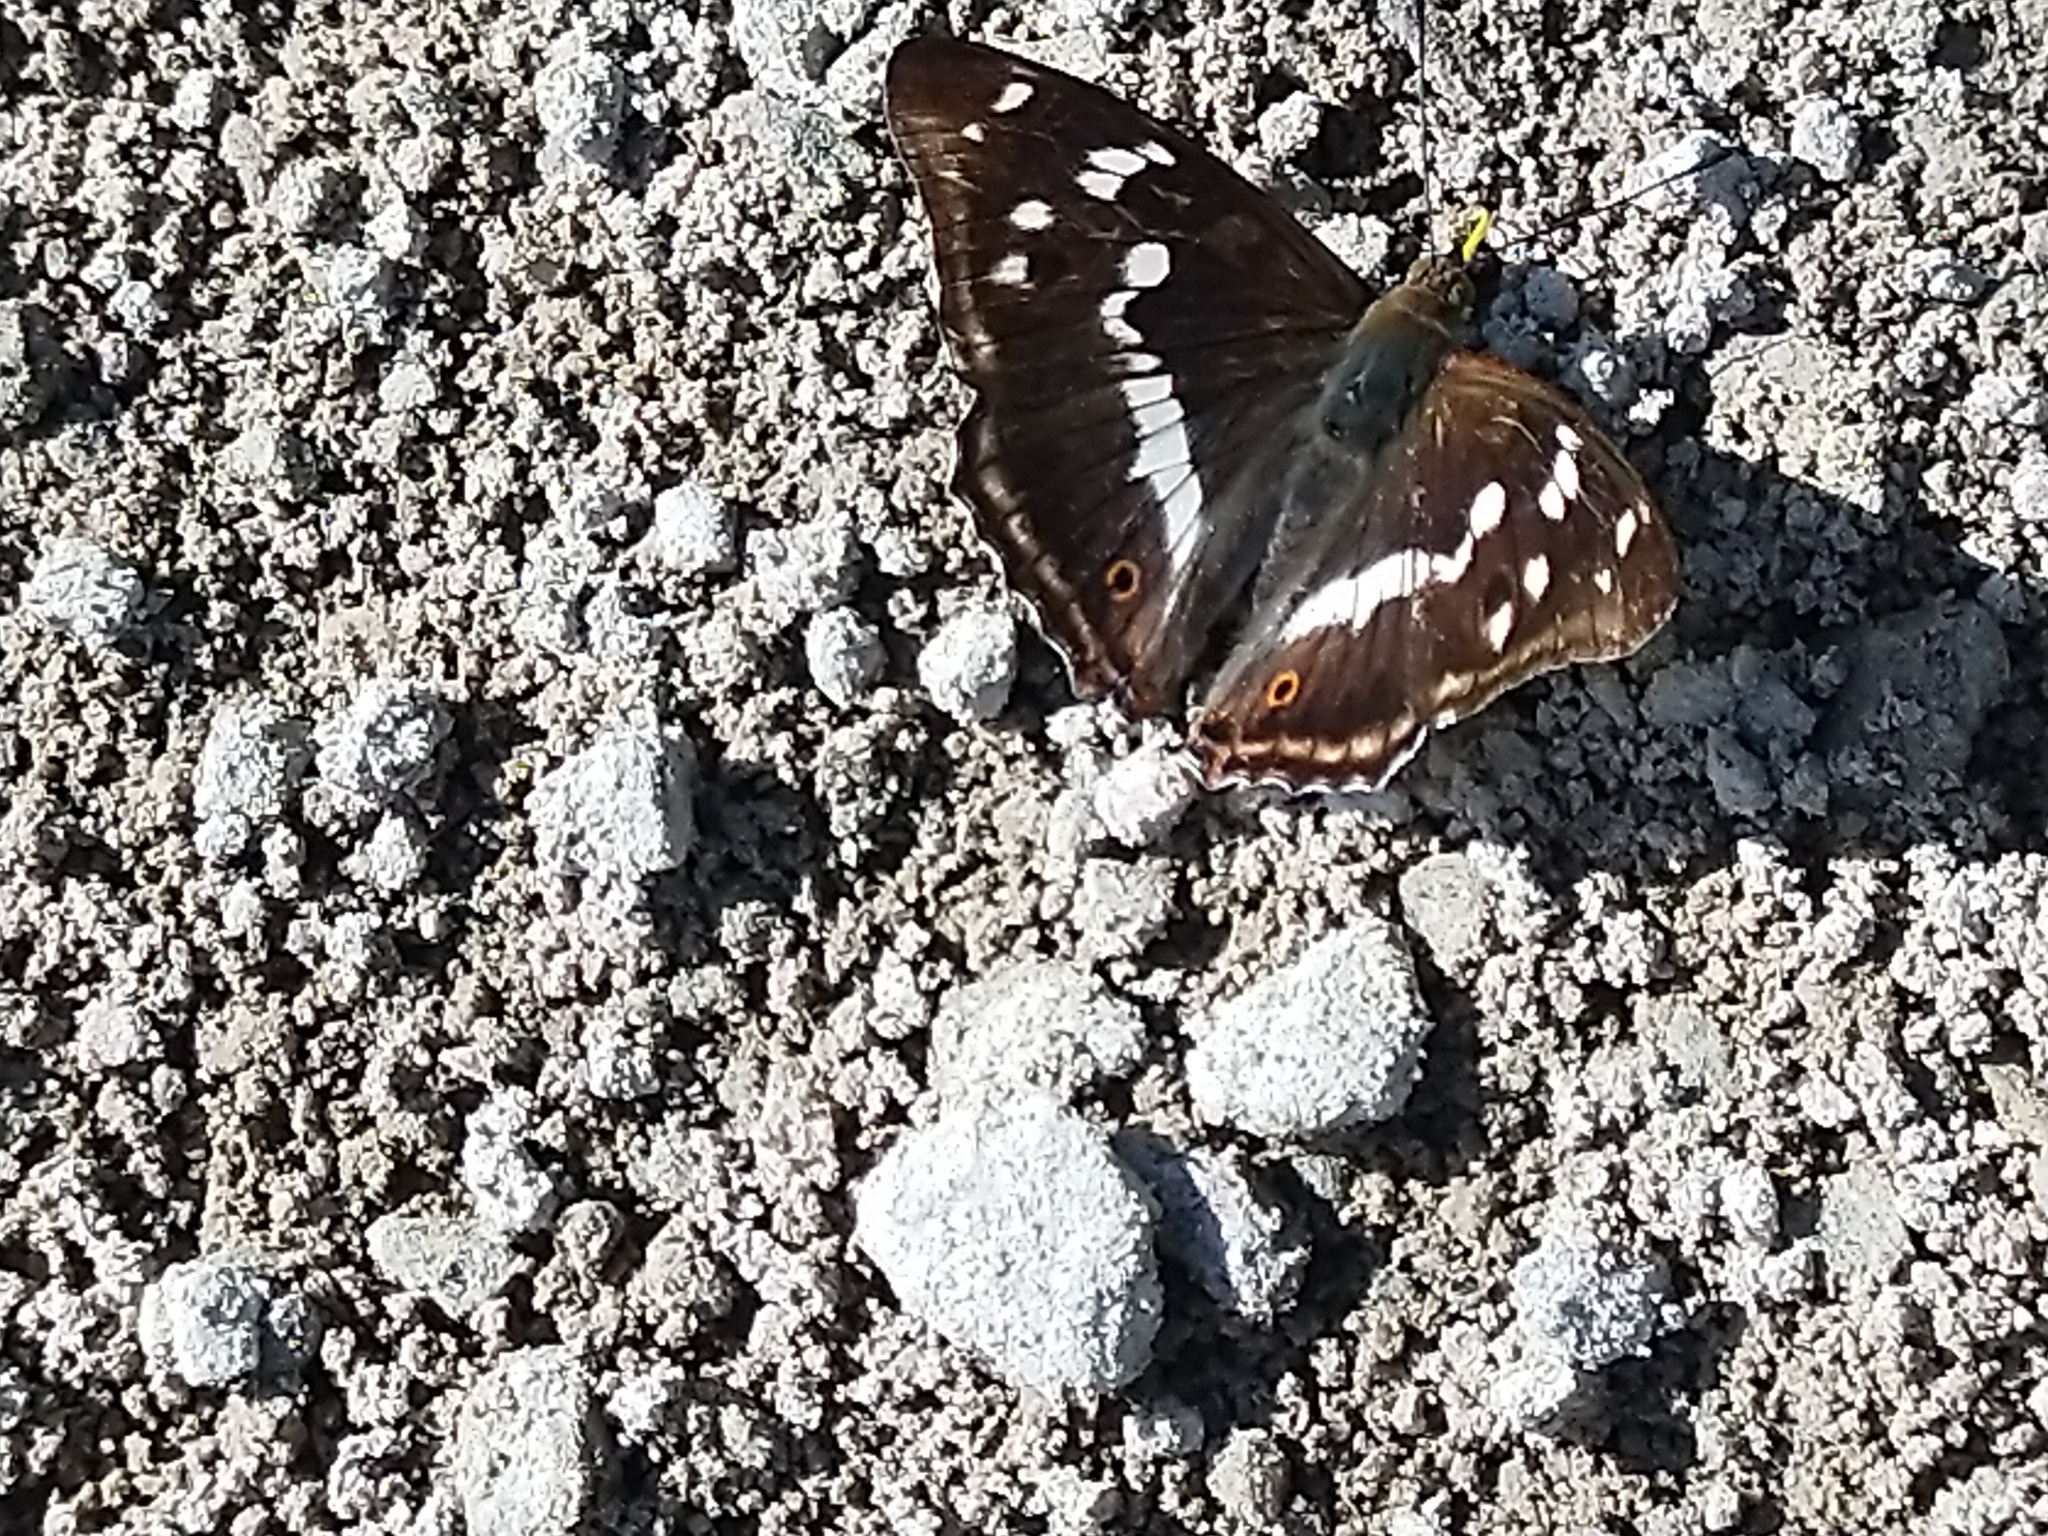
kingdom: Animalia
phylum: Arthropoda
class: Insecta
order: Lepidoptera
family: Nymphalidae
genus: Apatura
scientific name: Apatura iris
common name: Purple emperor
